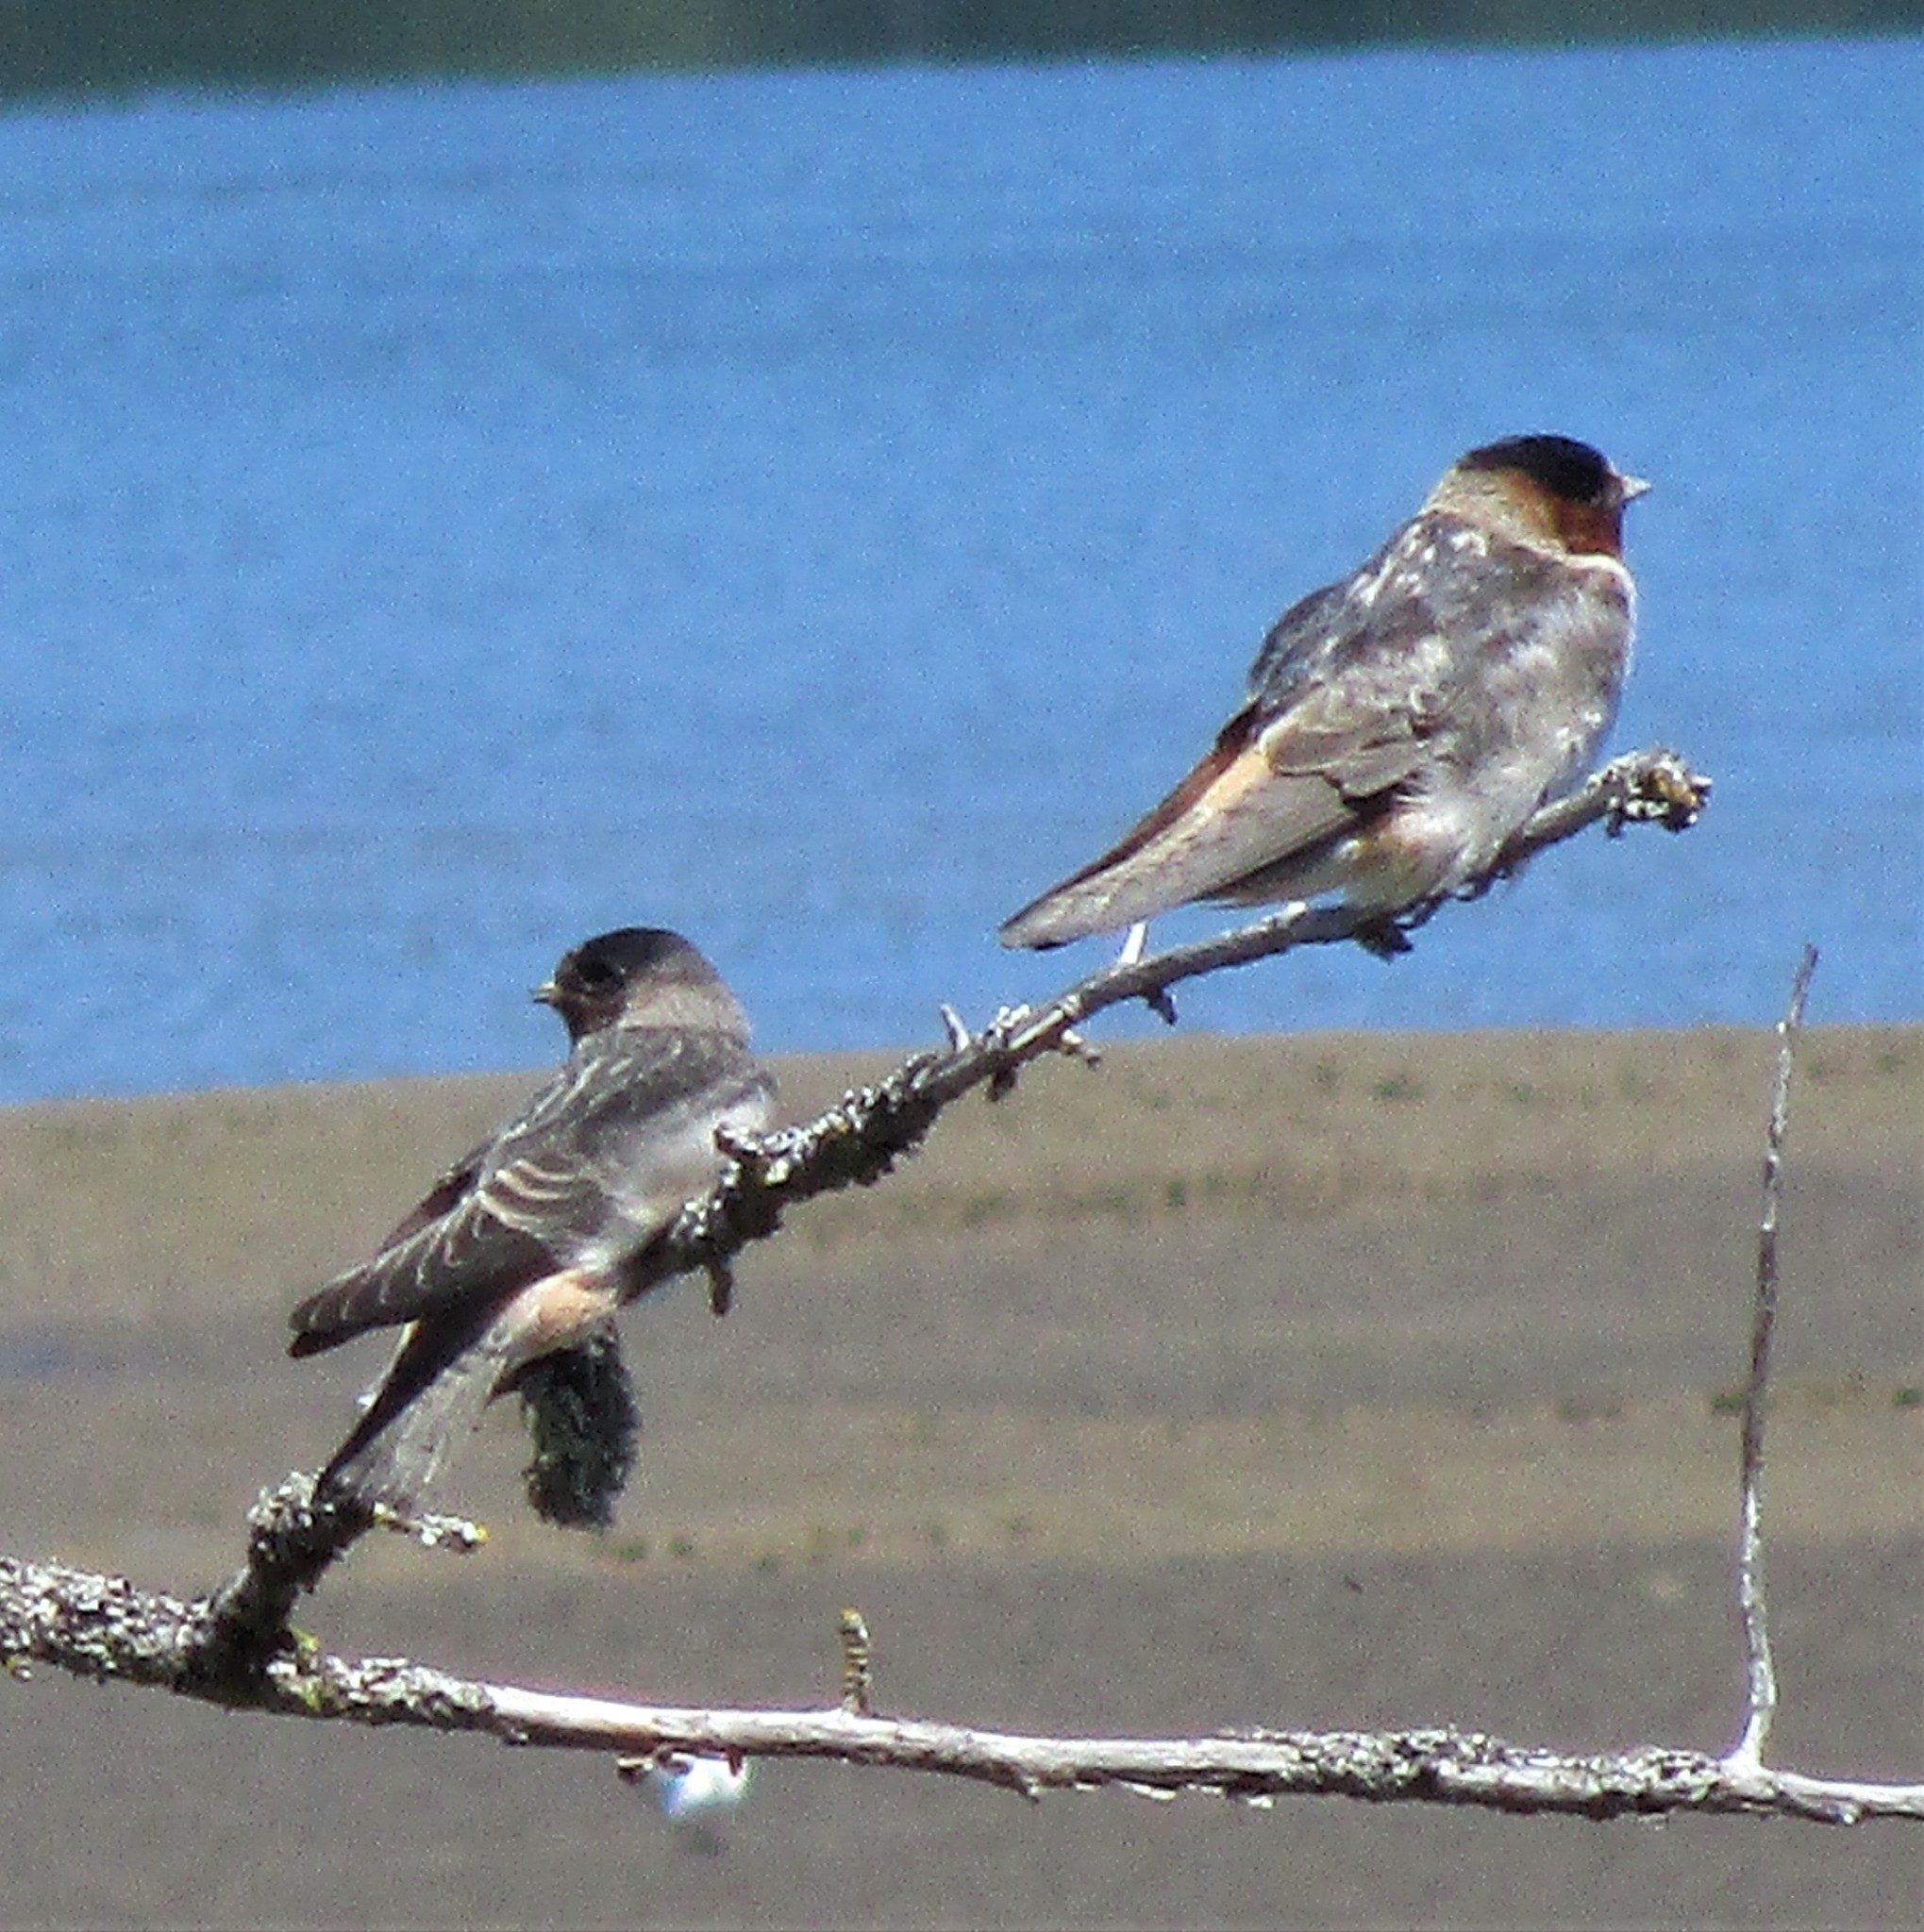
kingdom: Animalia
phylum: Chordata
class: Aves
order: Passeriformes
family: Hirundinidae
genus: Petrochelidon
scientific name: Petrochelidon pyrrhonota
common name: American cliff swallow
